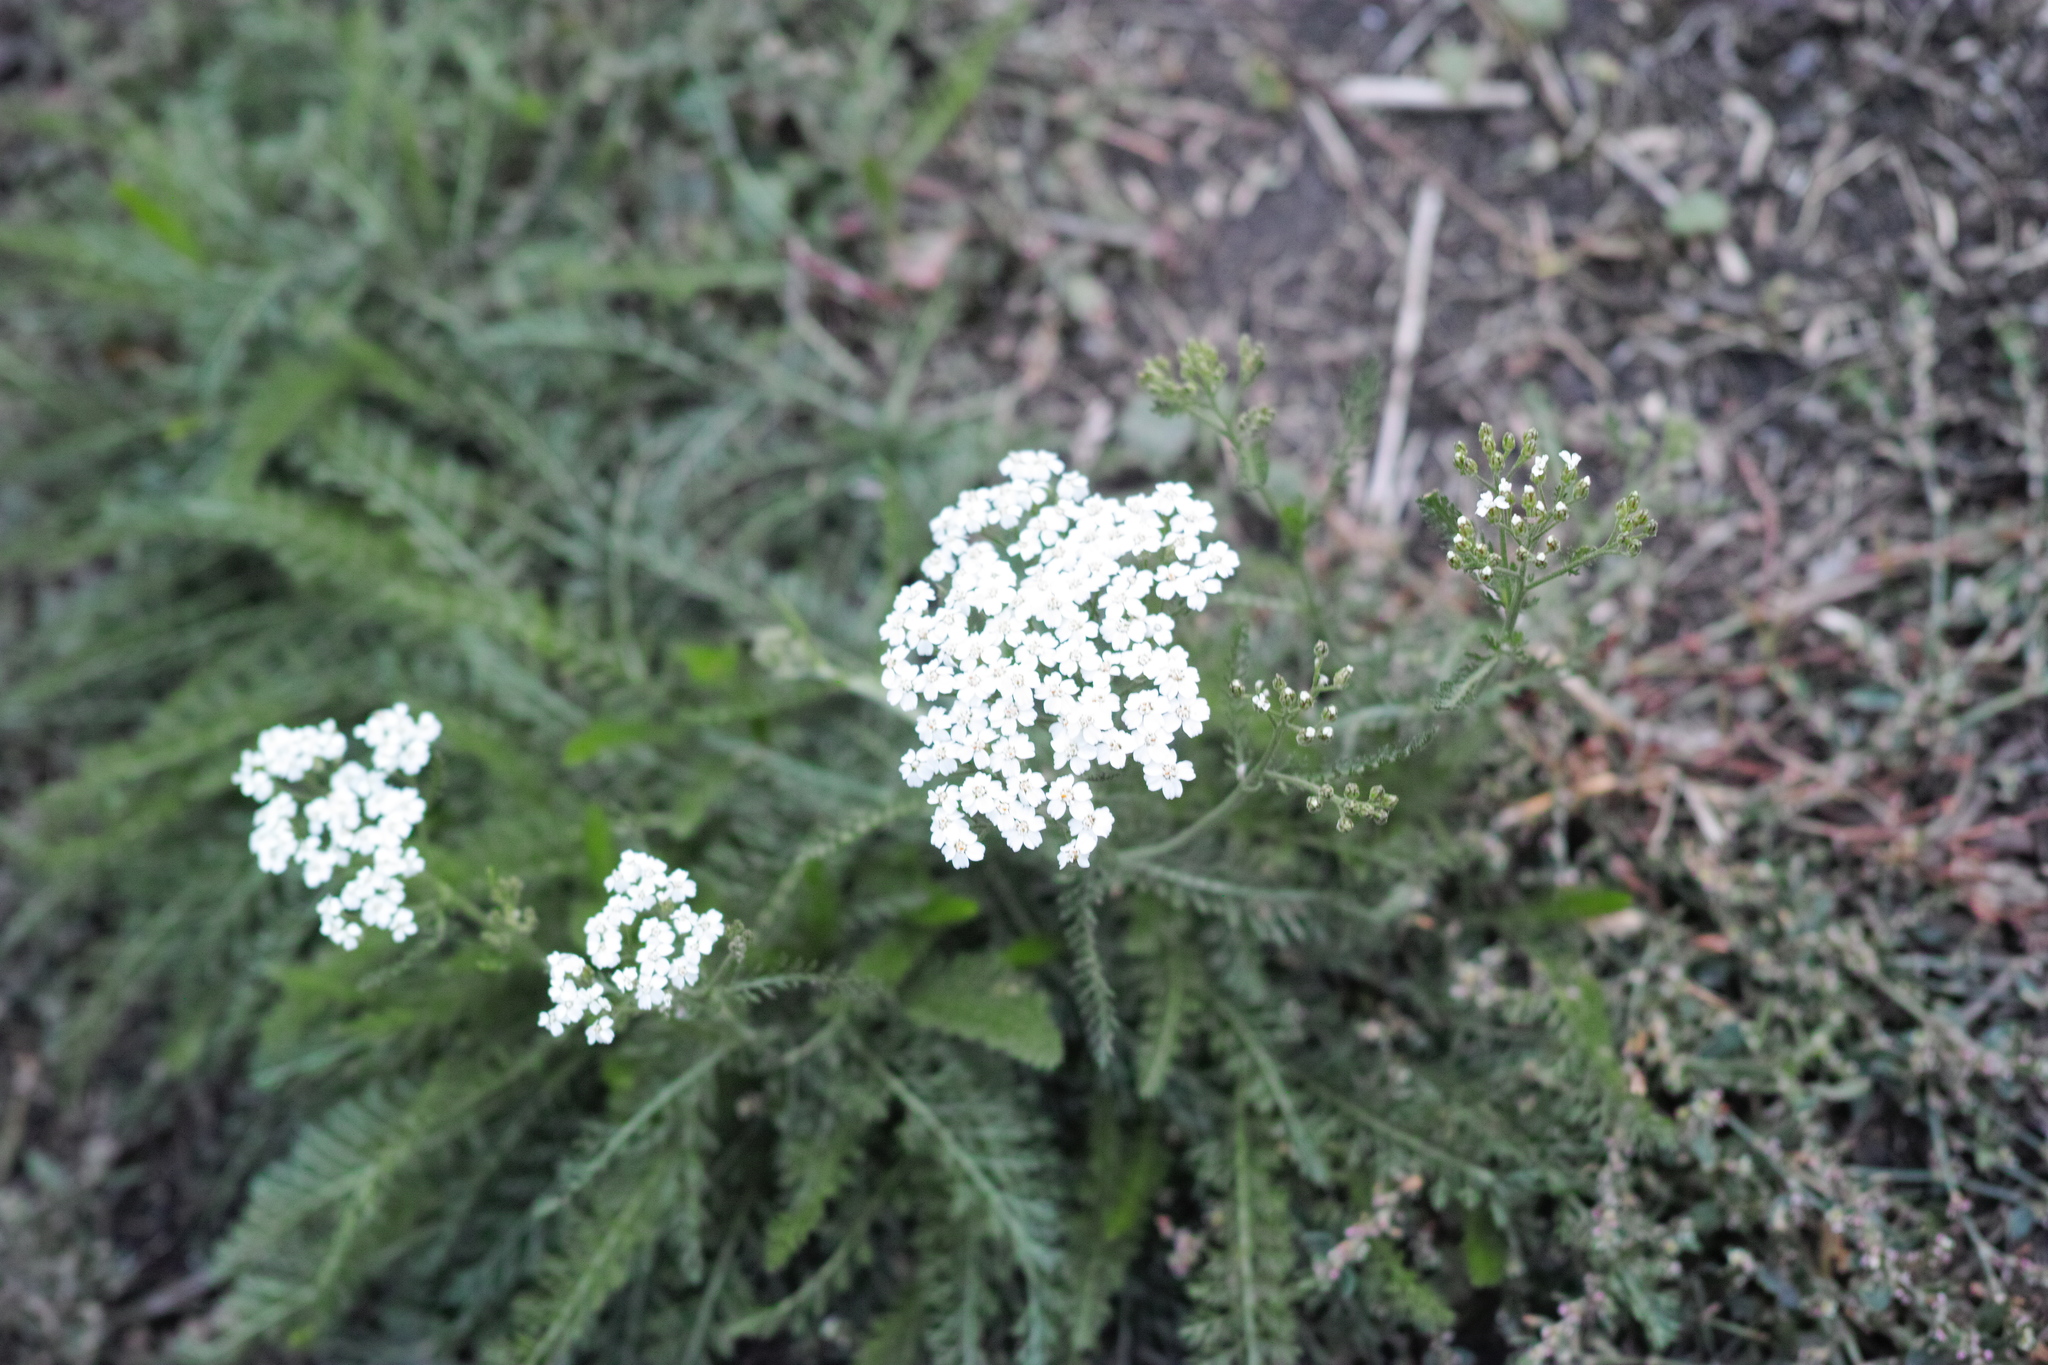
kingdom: Plantae
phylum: Tracheophyta
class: Magnoliopsida
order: Asterales
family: Asteraceae
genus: Achillea
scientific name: Achillea millefolium
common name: Yarrow
